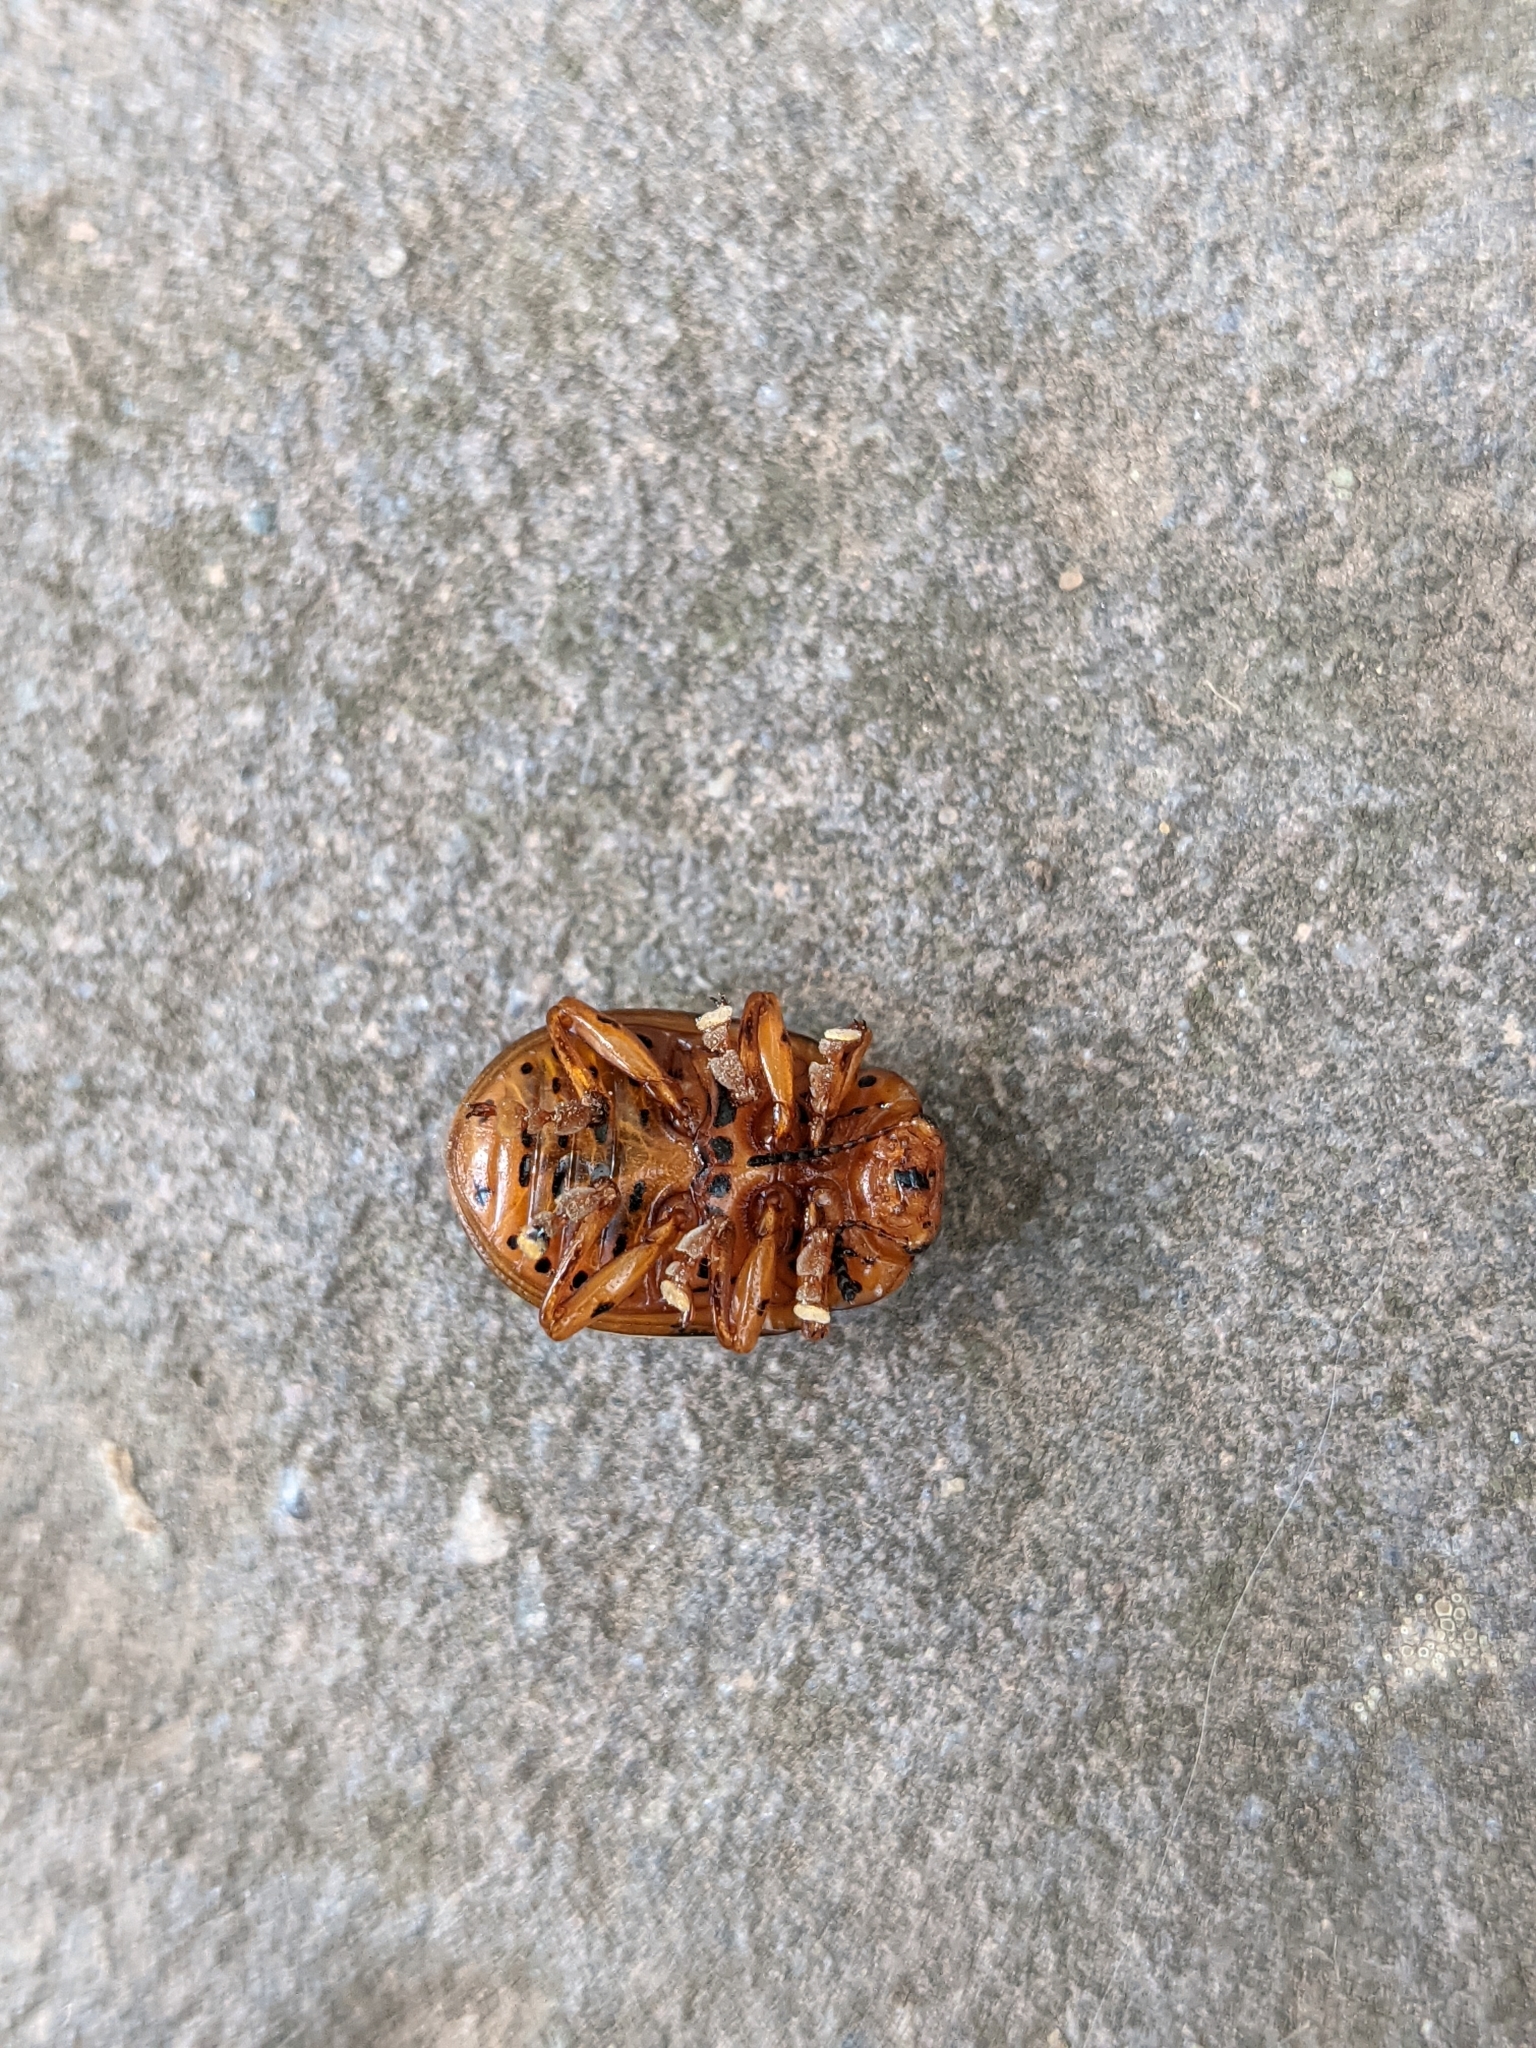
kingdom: Animalia
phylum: Arthropoda
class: Insecta
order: Coleoptera
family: Chrysomelidae
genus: Leptinotarsa
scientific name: Leptinotarsa juncta
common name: False potato beetle
